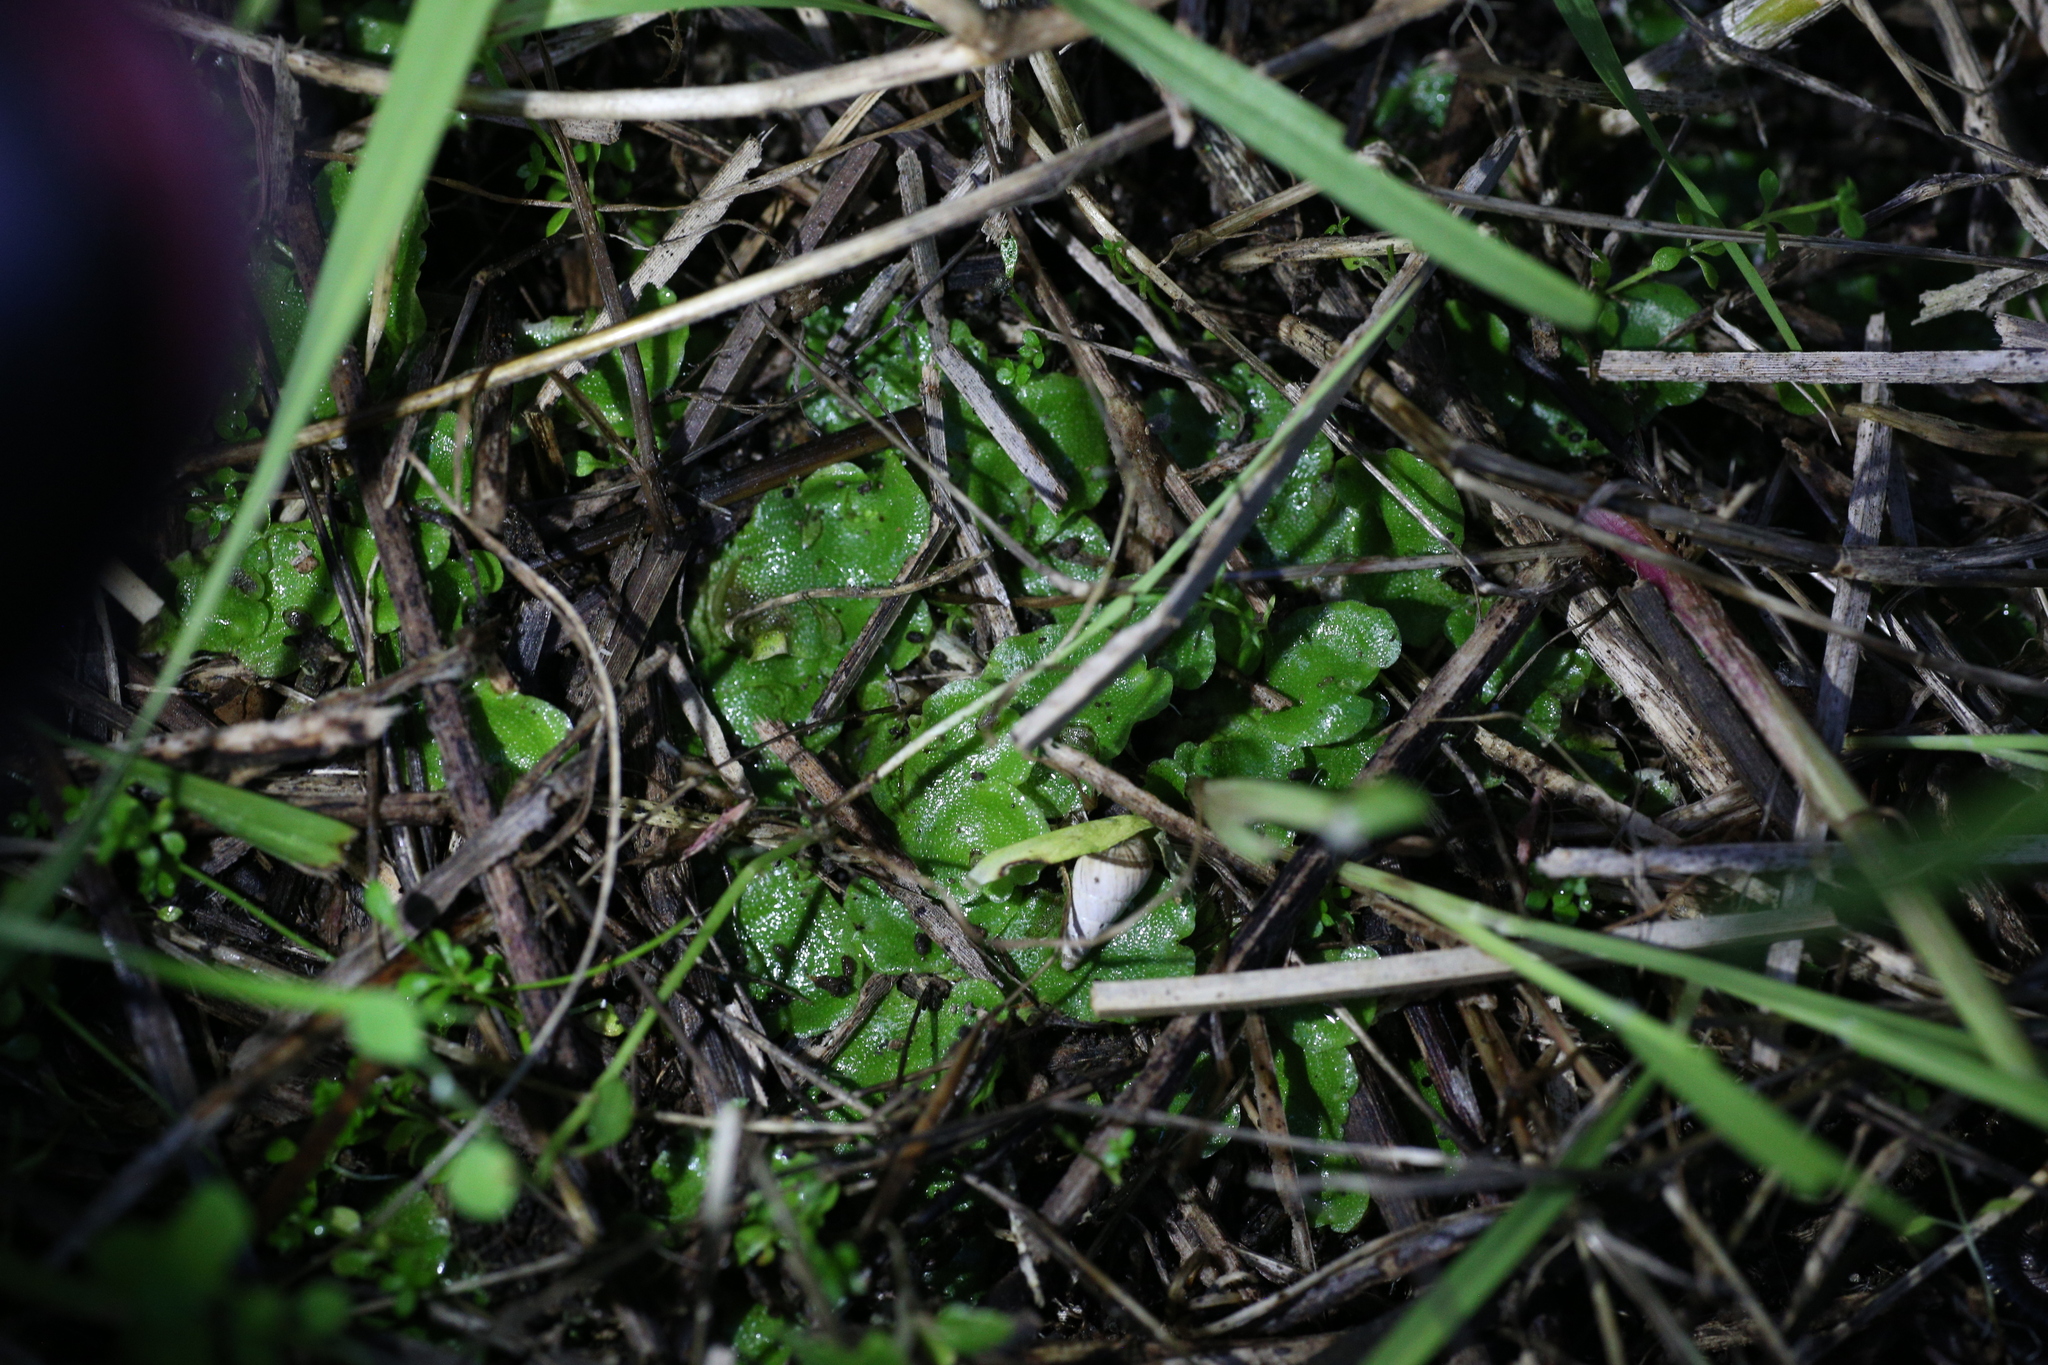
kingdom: Plantae
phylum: Marchantiophyta
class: Marchantiopsida
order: Lunulariales
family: Lunulariaceae
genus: Lunularia
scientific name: Lunularia cruciata
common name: Crescent-cup liverwort
